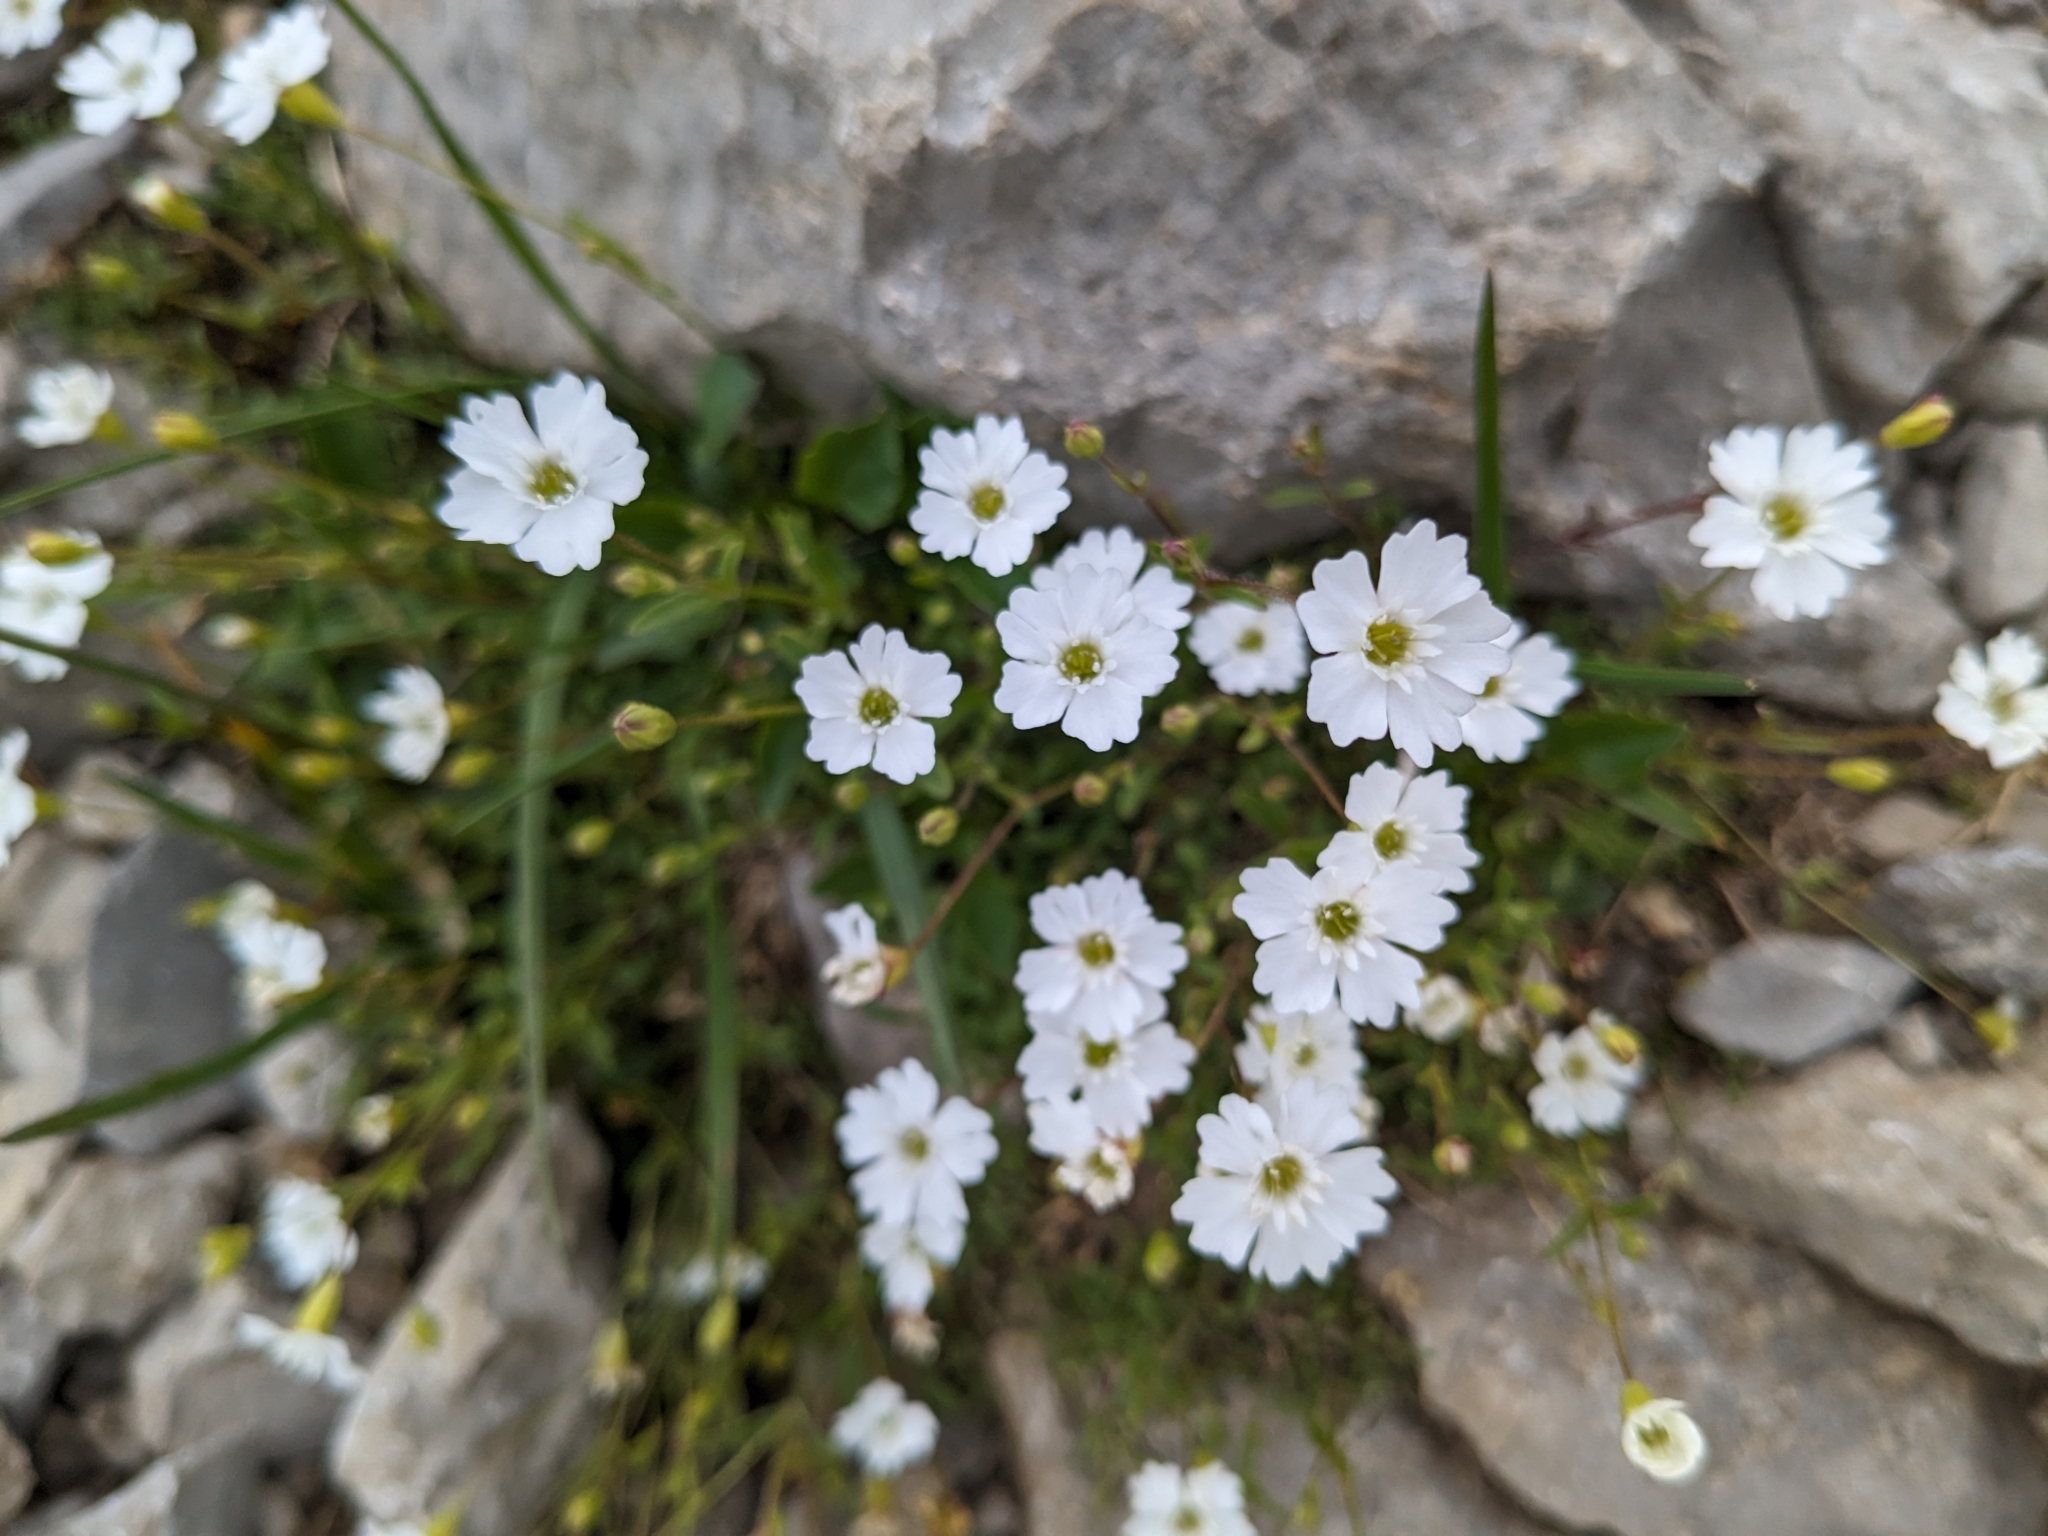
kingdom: Plantae
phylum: Tracheophyta
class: Magnoliopsida
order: Caryophyllales
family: Caryophyllaceae
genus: Heliosperma
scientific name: Heliosperma pusillum
